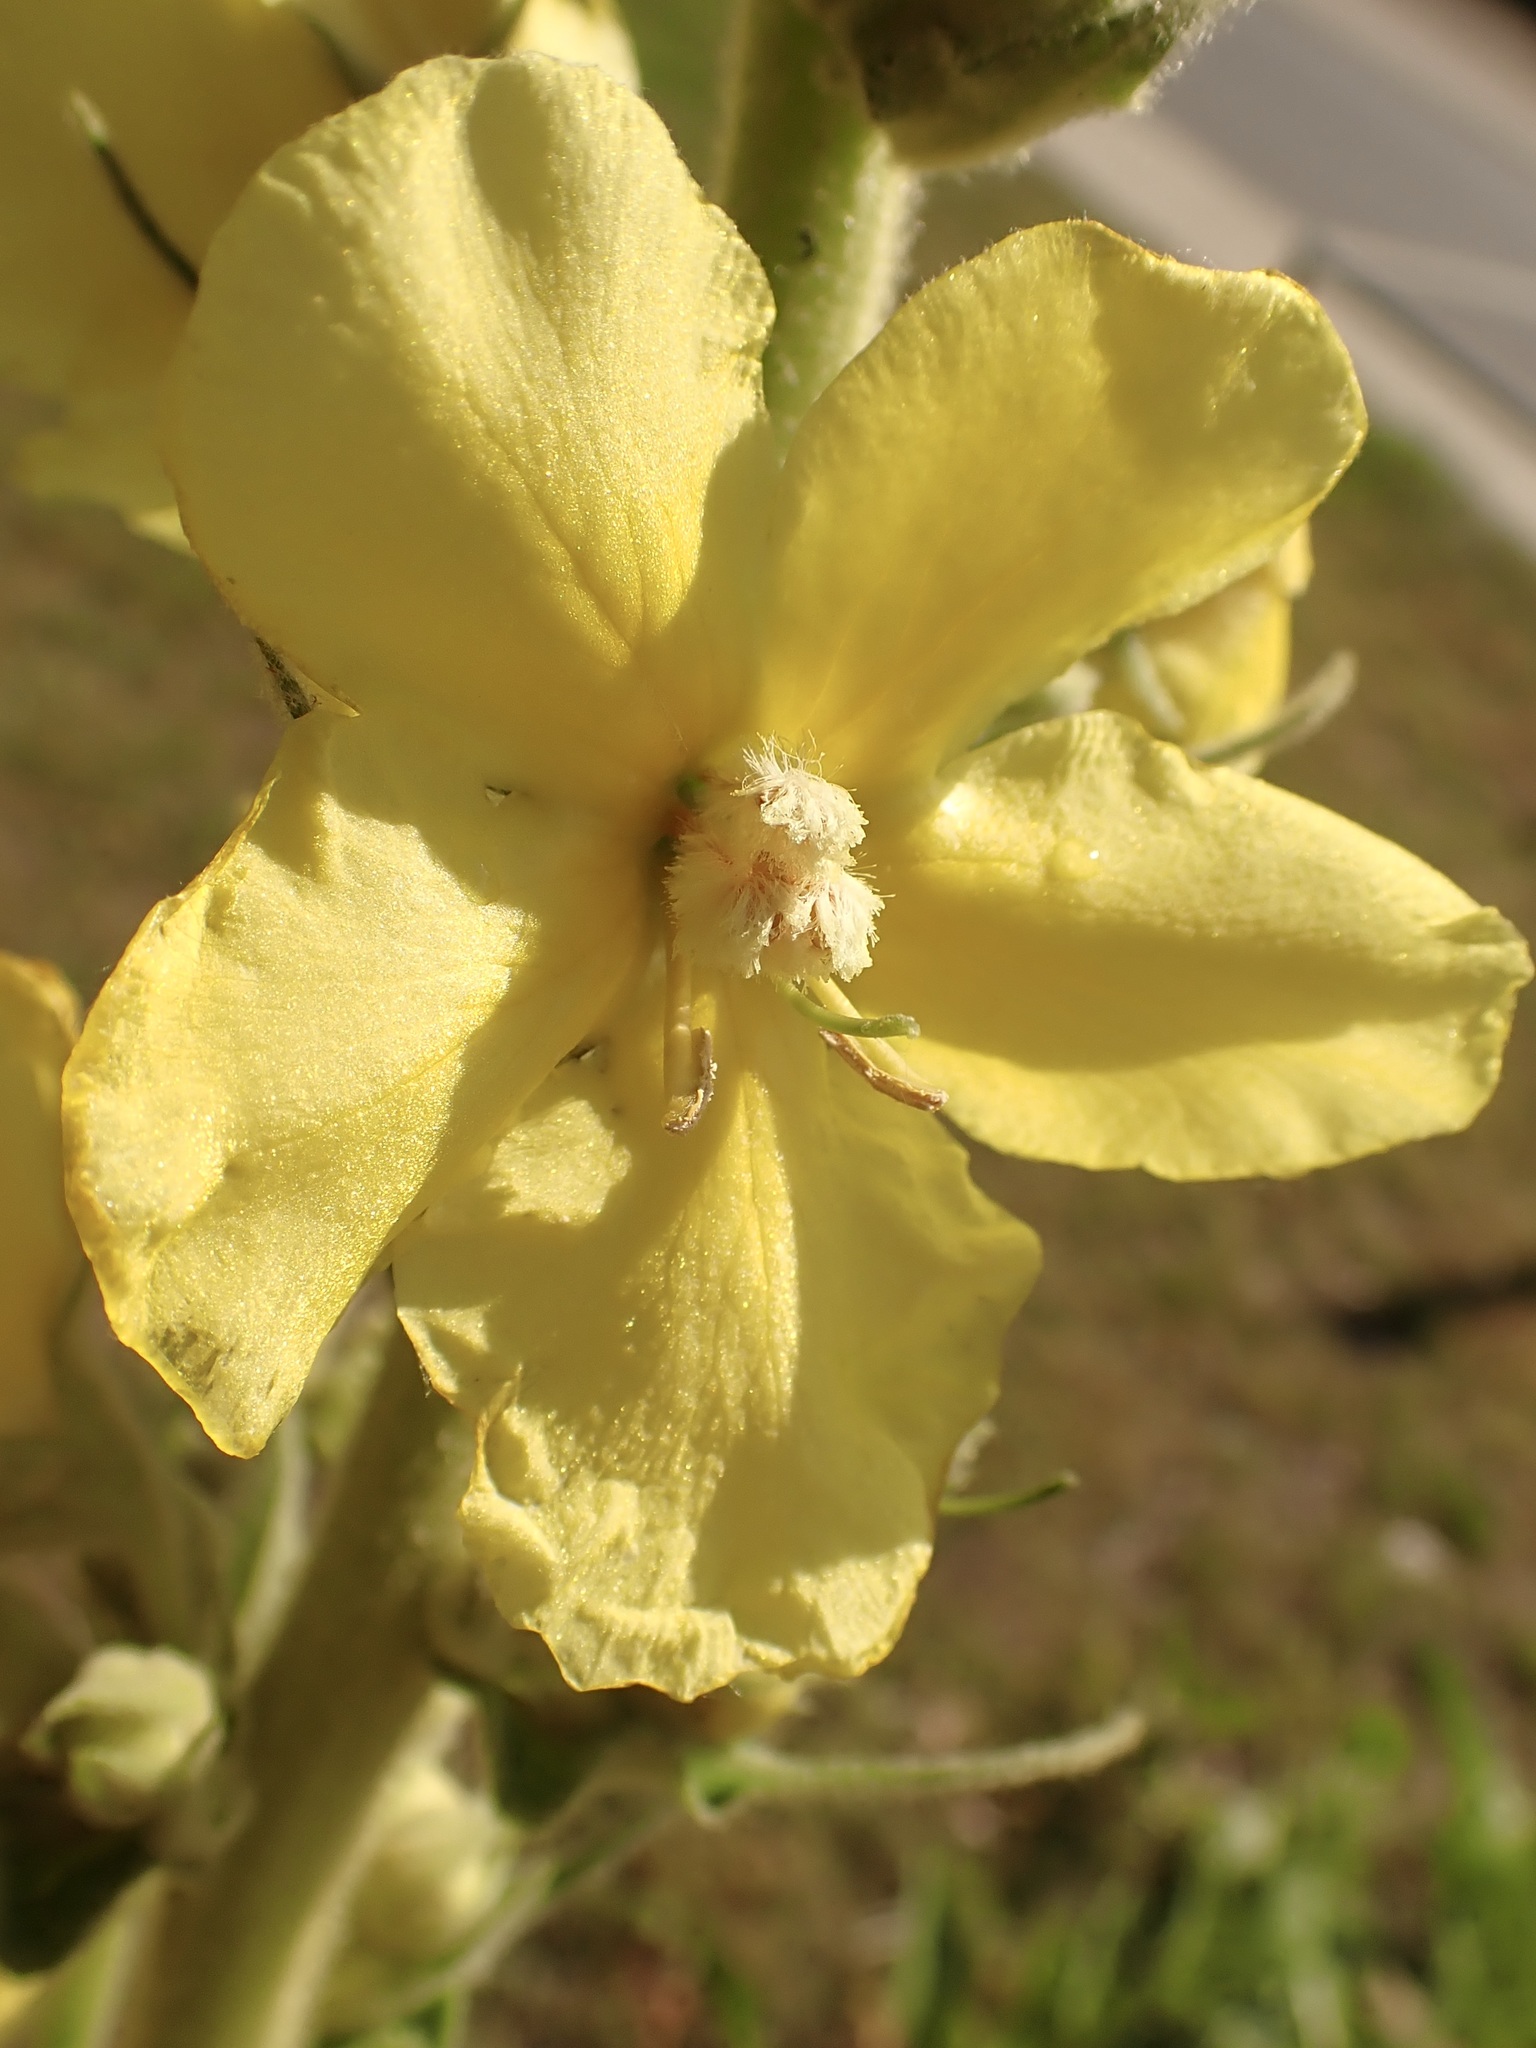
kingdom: Plantae
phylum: Tracheophyta
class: Magnoliopsida
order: Lamiales
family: Scrophulariaceae
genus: Verbascum
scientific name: Verbascum phlomoides
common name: Orange mullein
